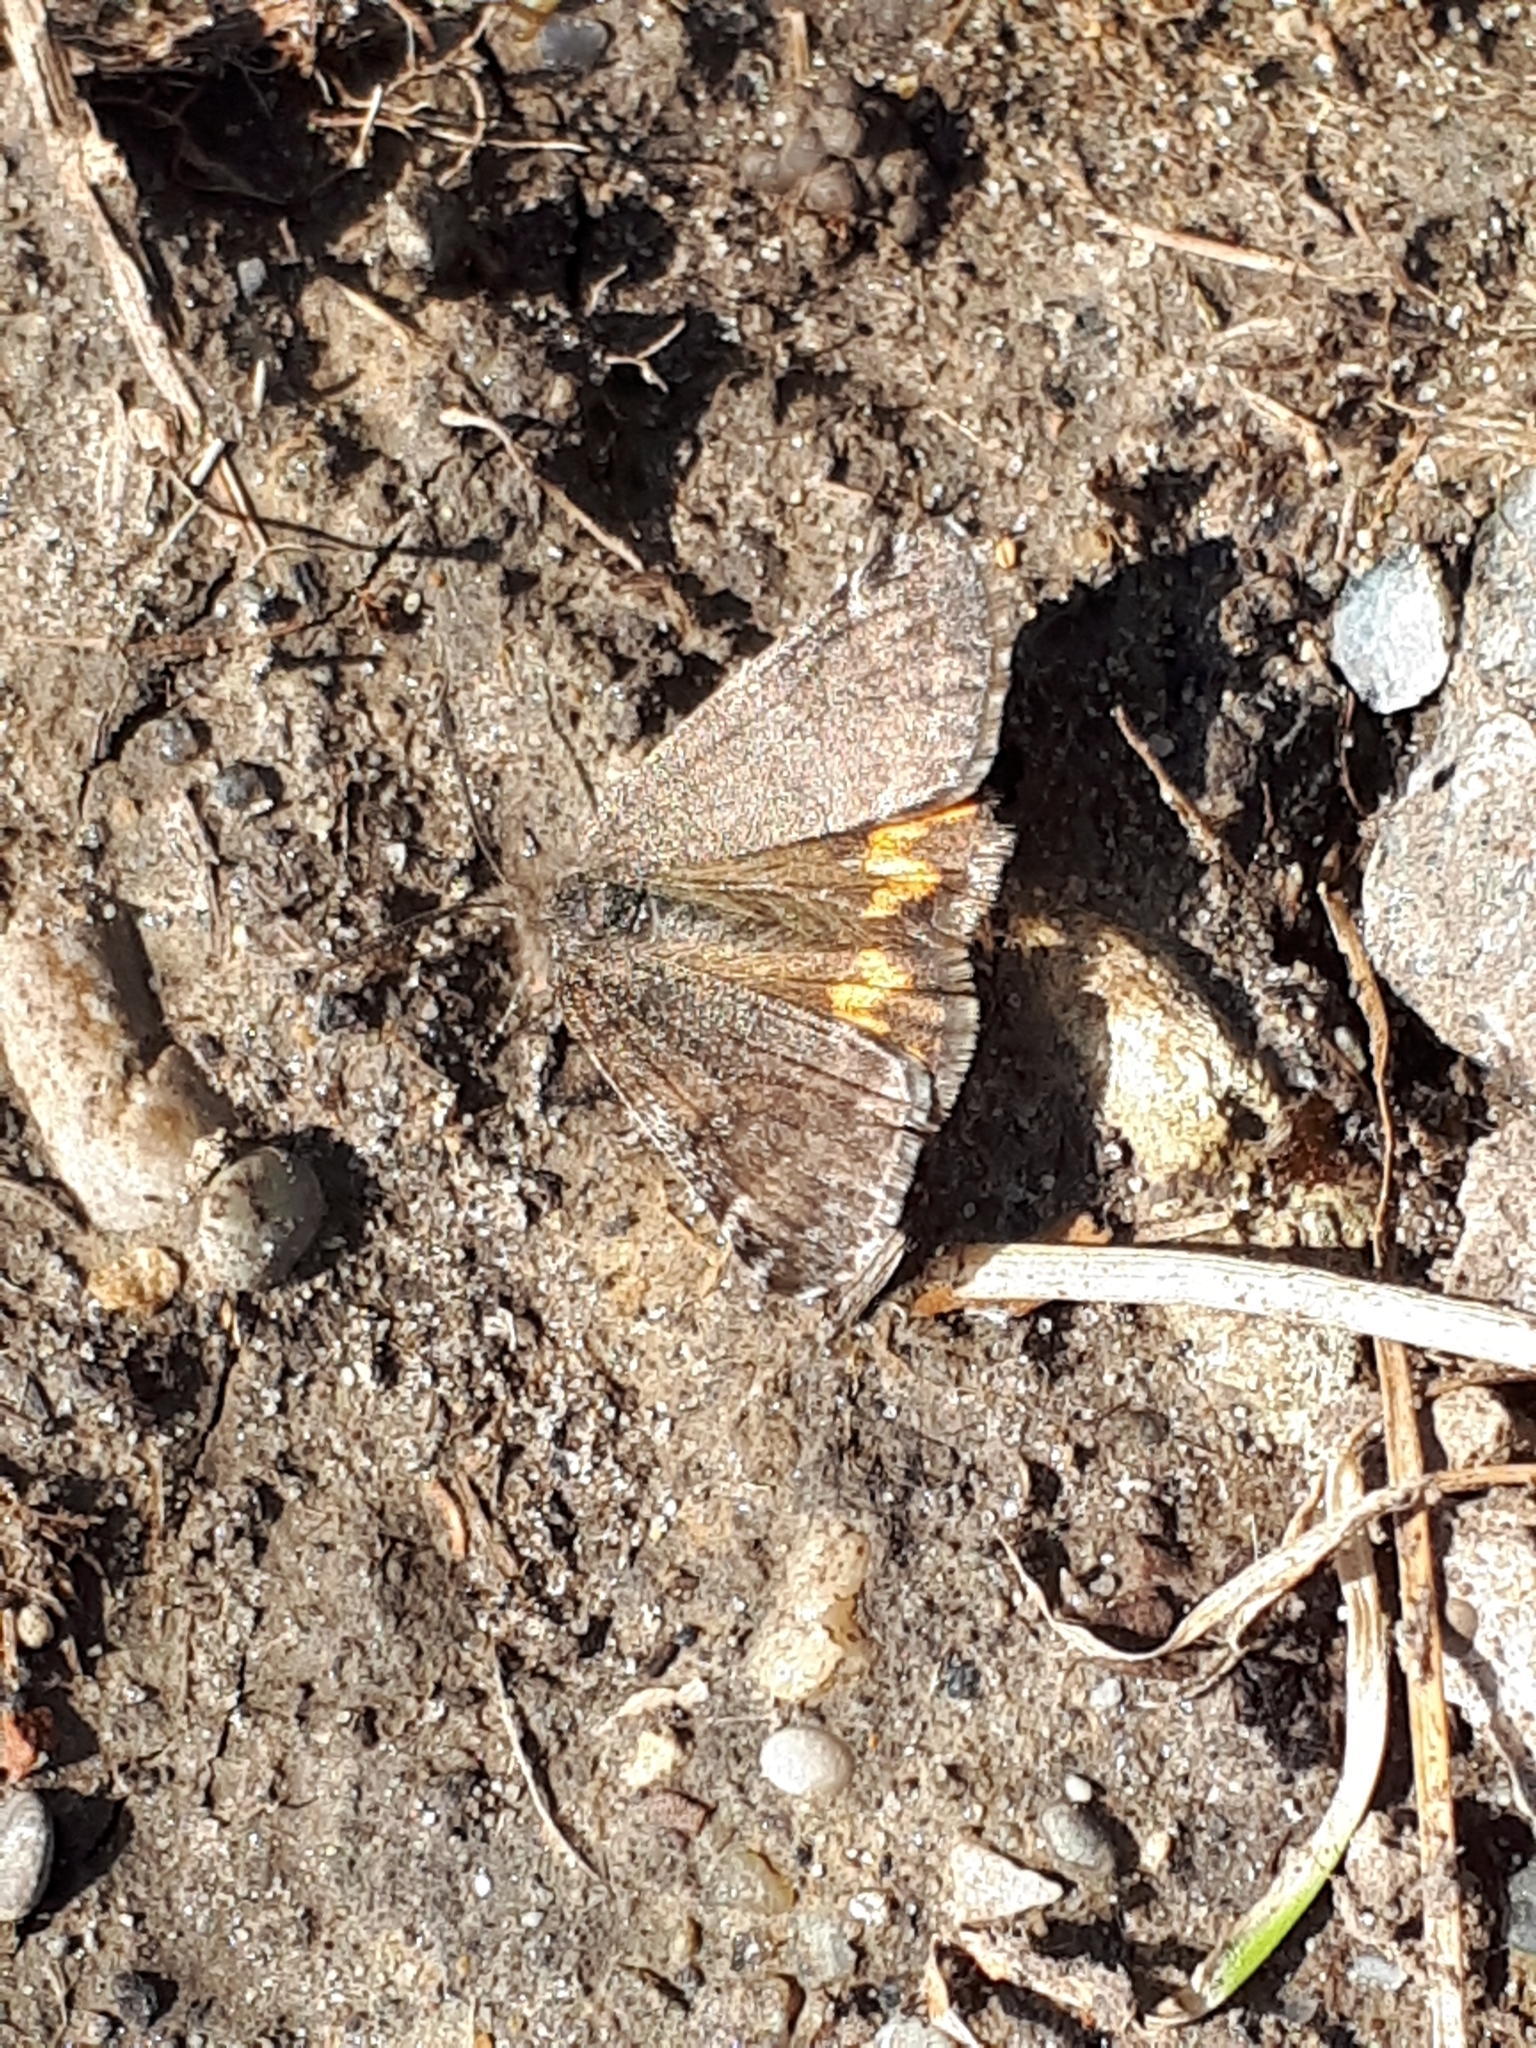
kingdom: Animalia
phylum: Arthropoda
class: Insecta
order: Lepidoptera
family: Geometridae
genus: Archiearis
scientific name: Archiearis notha
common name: Light orange underwing
